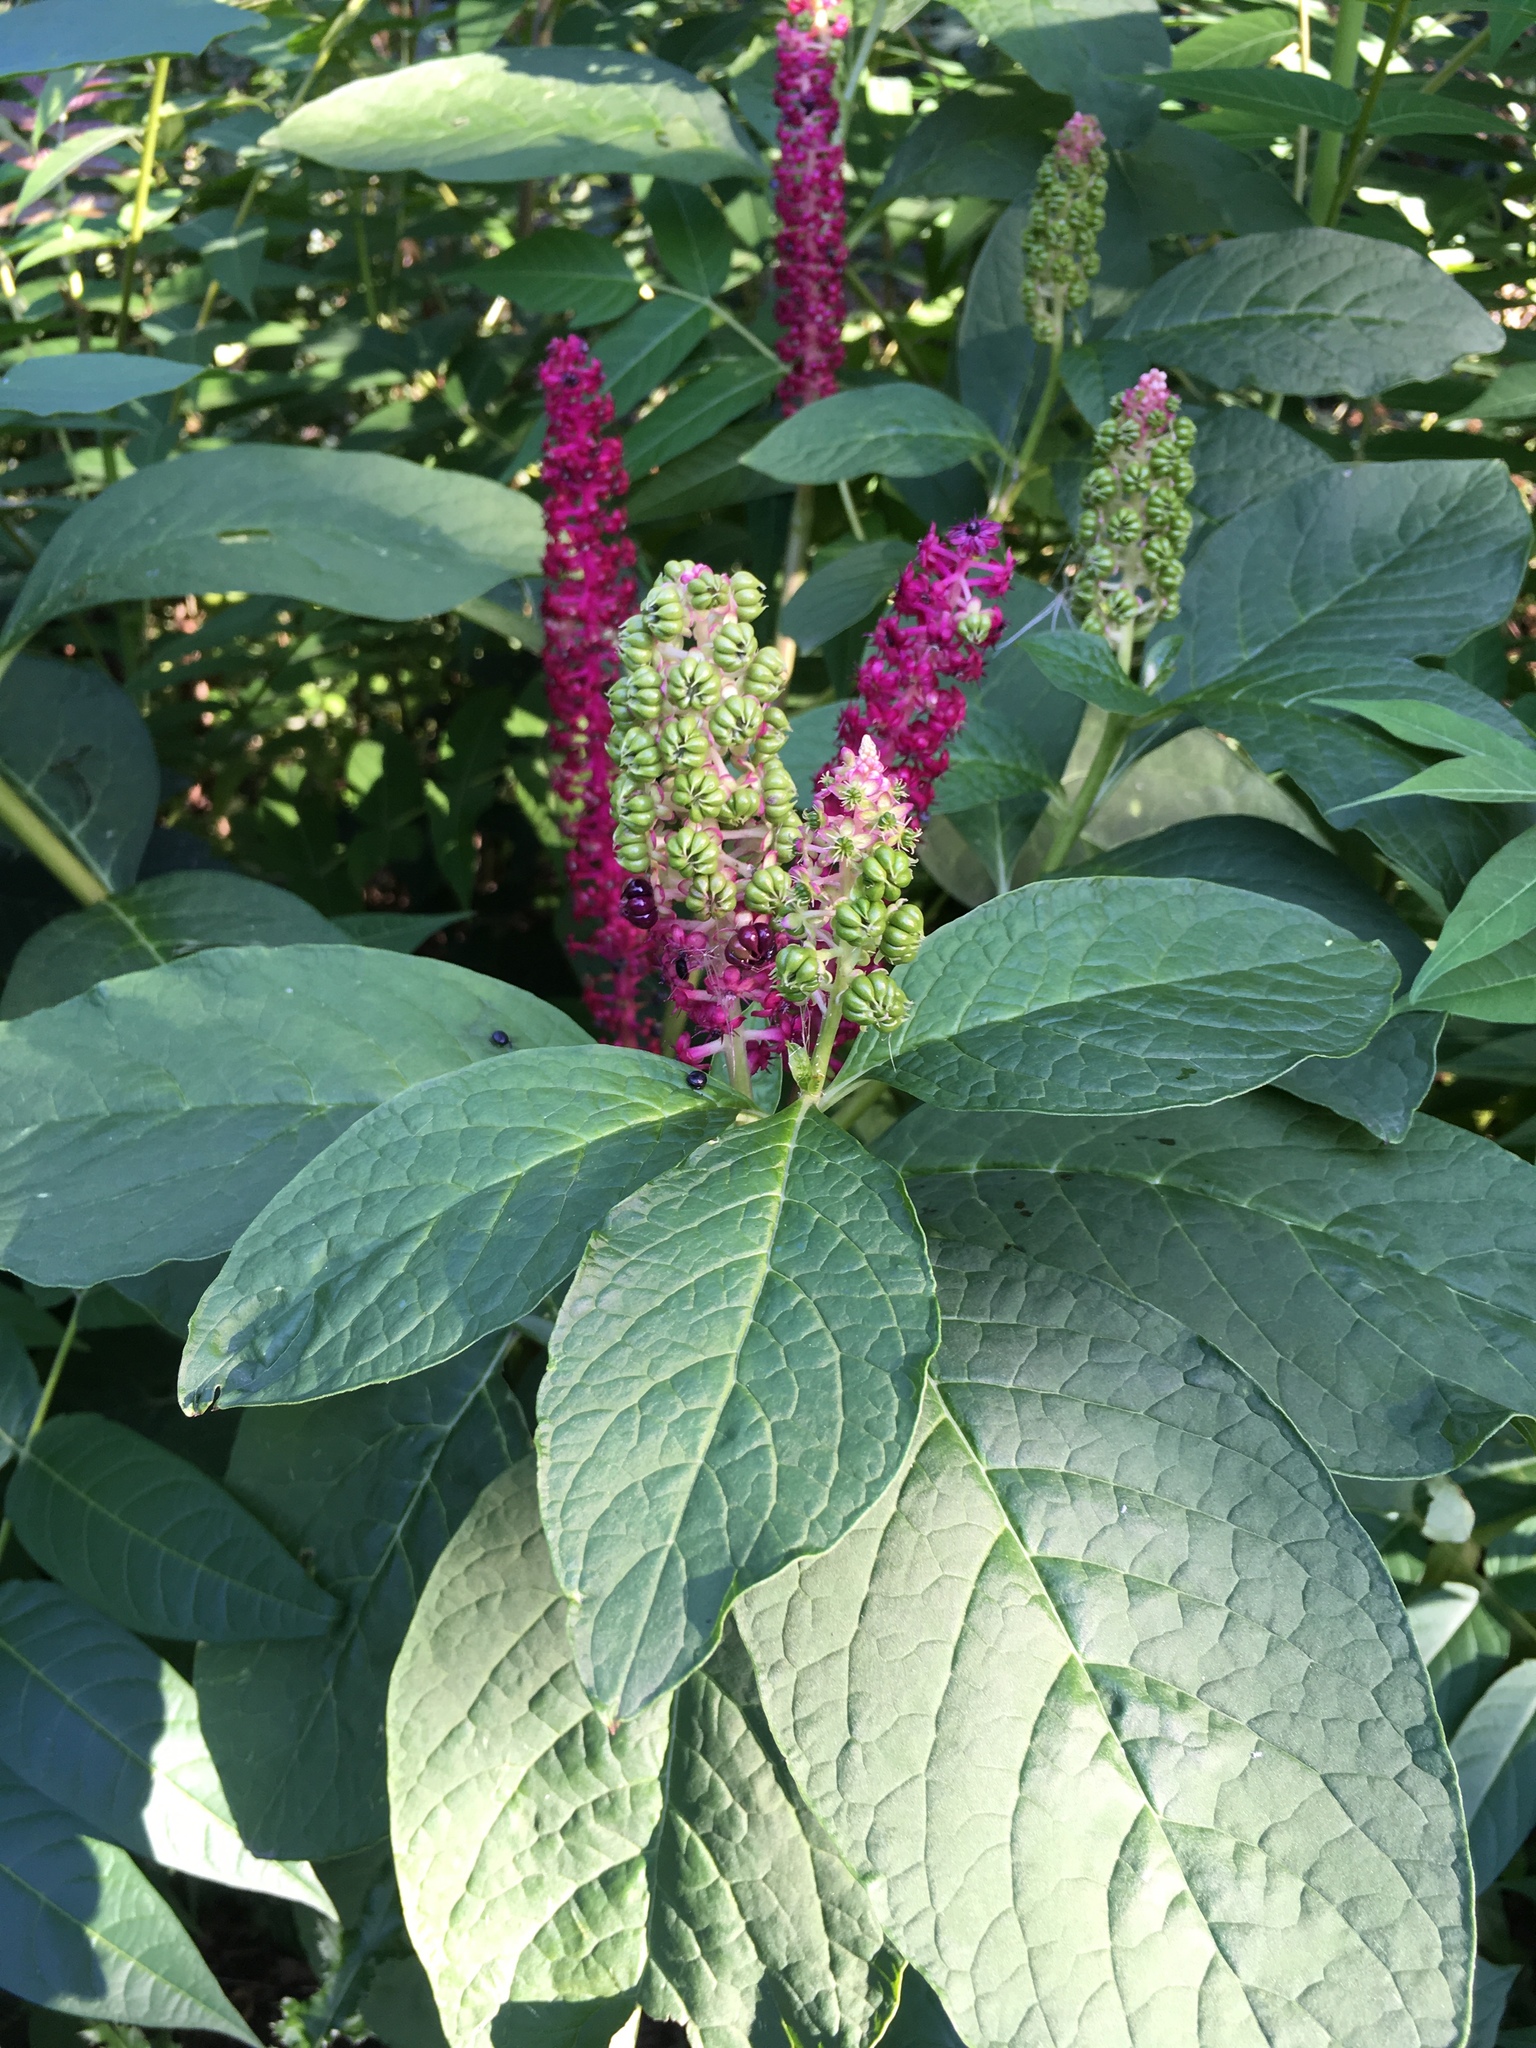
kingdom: Plantae
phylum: Tracheophyta
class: Magnoliopsida
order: Caryophyllales
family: Phytolaccaceae
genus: Phytolacca
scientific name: Phytolacca acinosa
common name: Indian pokeweed
